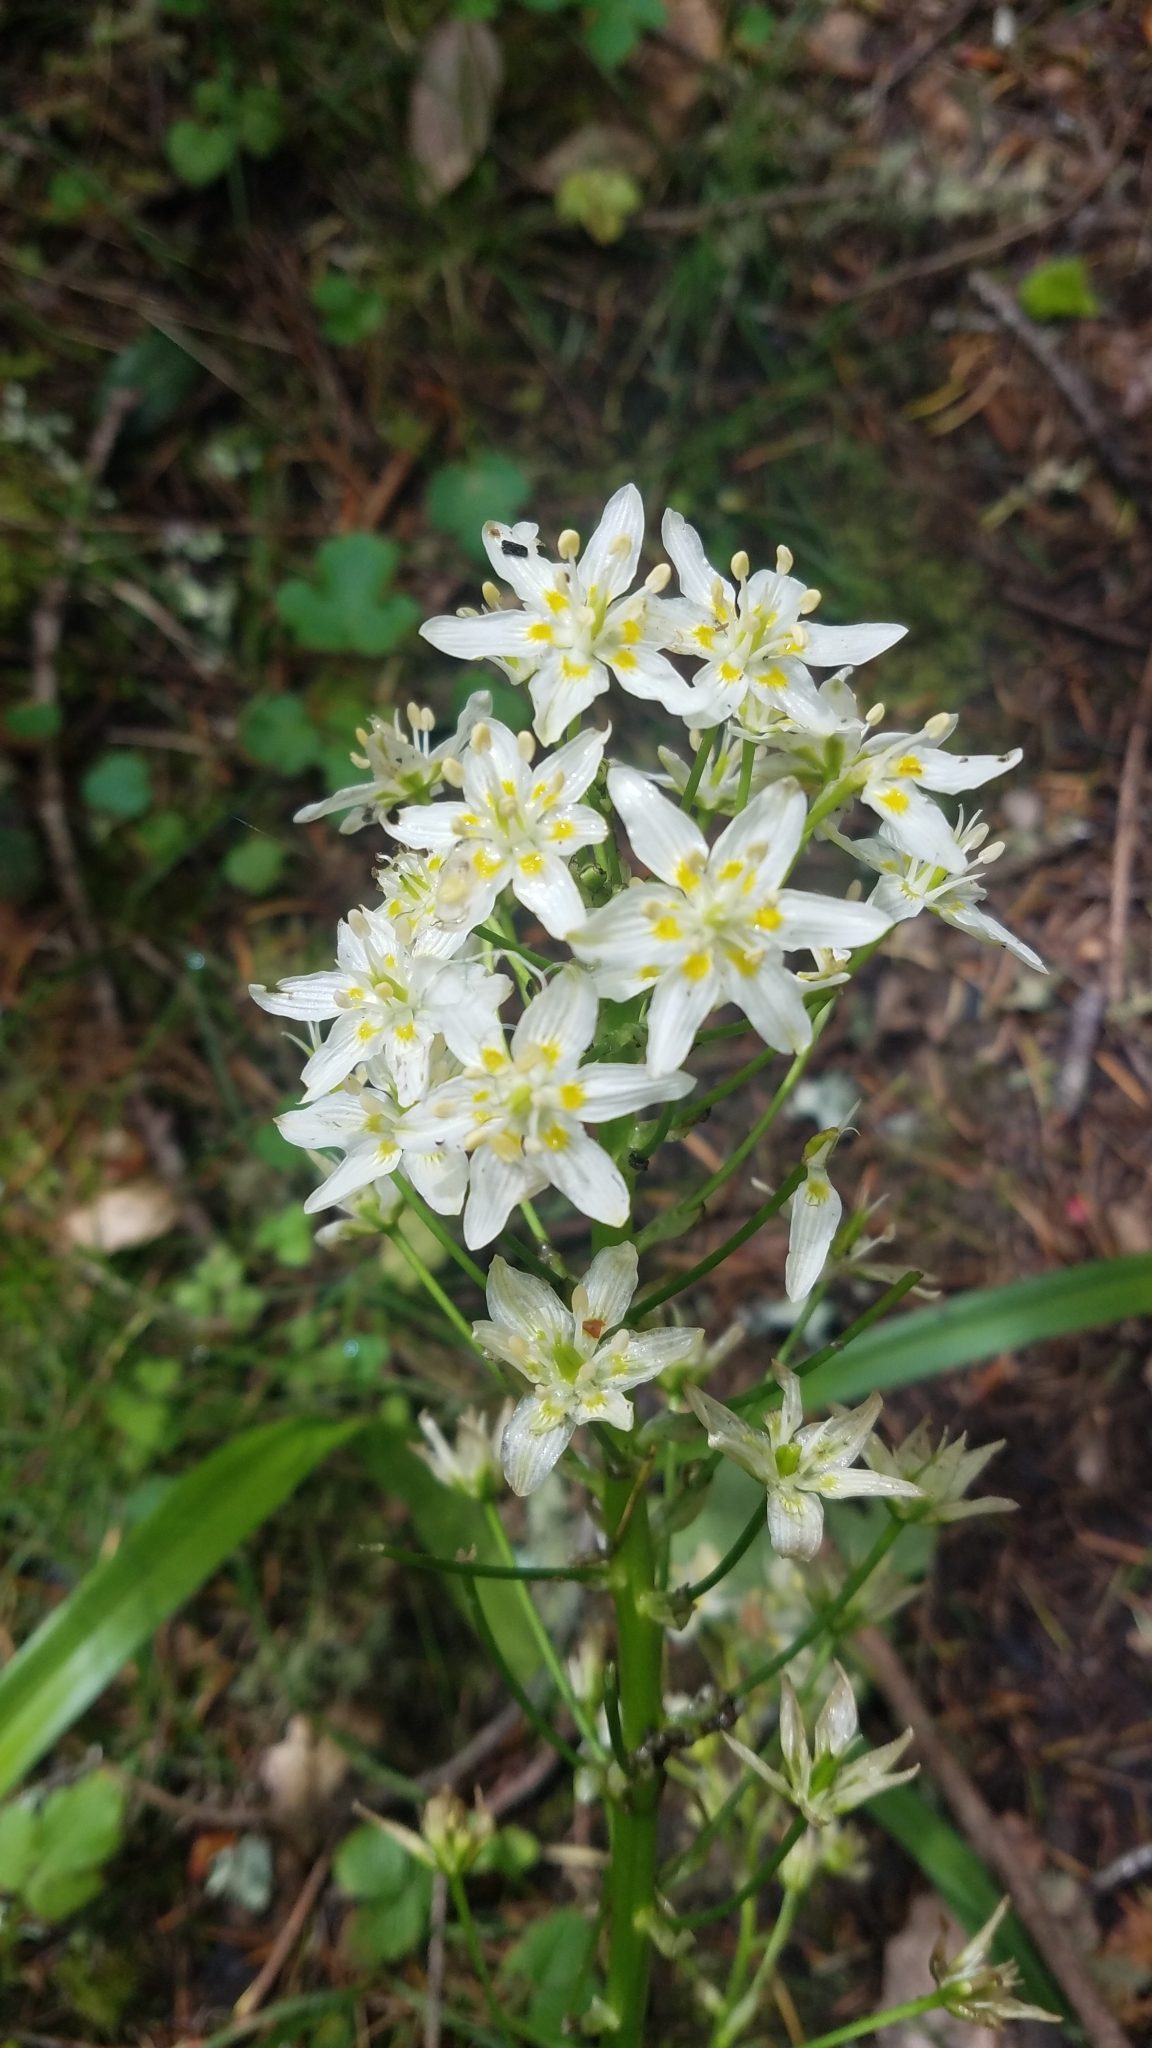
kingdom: Plantae
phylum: Tracheophyta
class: Liliopsida
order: Liliales
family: Melanthiaceae
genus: Toxicoscordion
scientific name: Toxicoscordion fremontii
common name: Fremont's death camas
